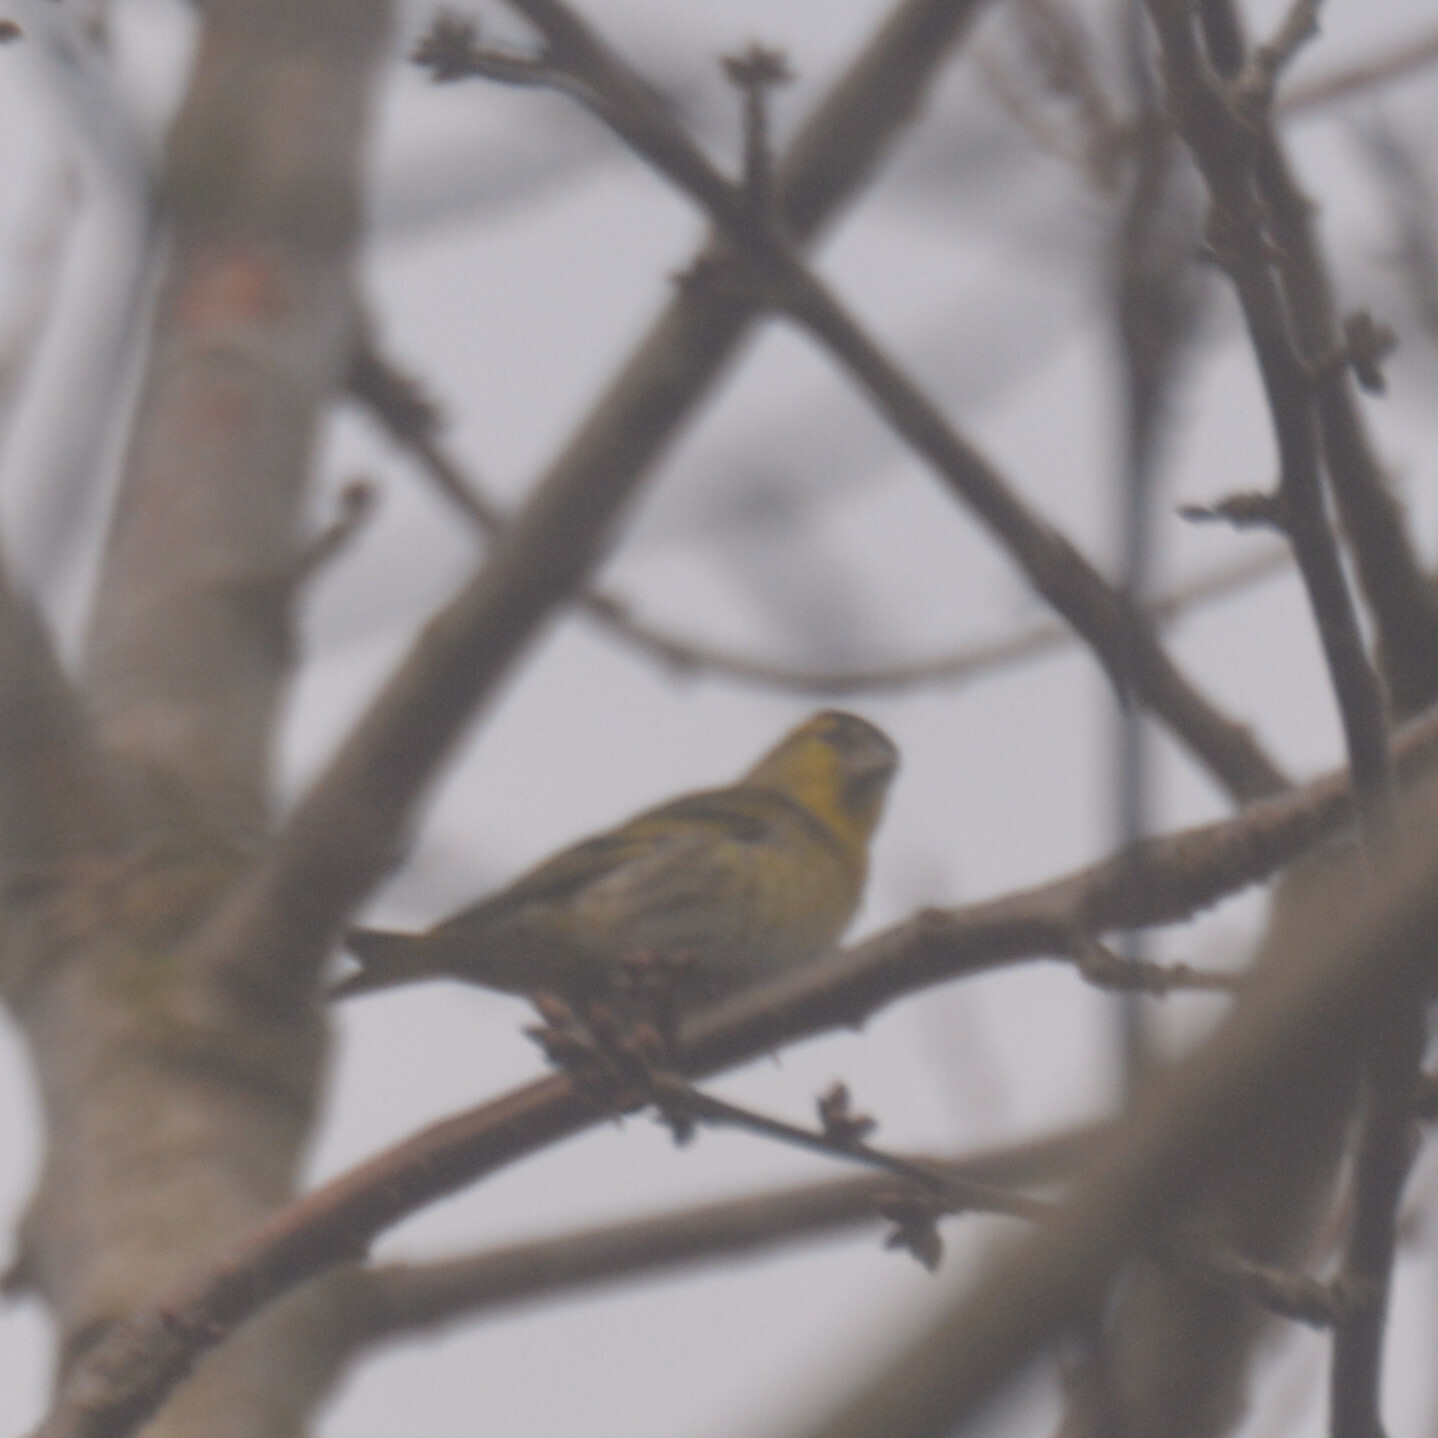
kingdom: Animalia
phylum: Chordata
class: Aves
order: Passeriformes
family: Fringillidae
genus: Spinus
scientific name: Spinus spinus
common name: Eurasian siskin
